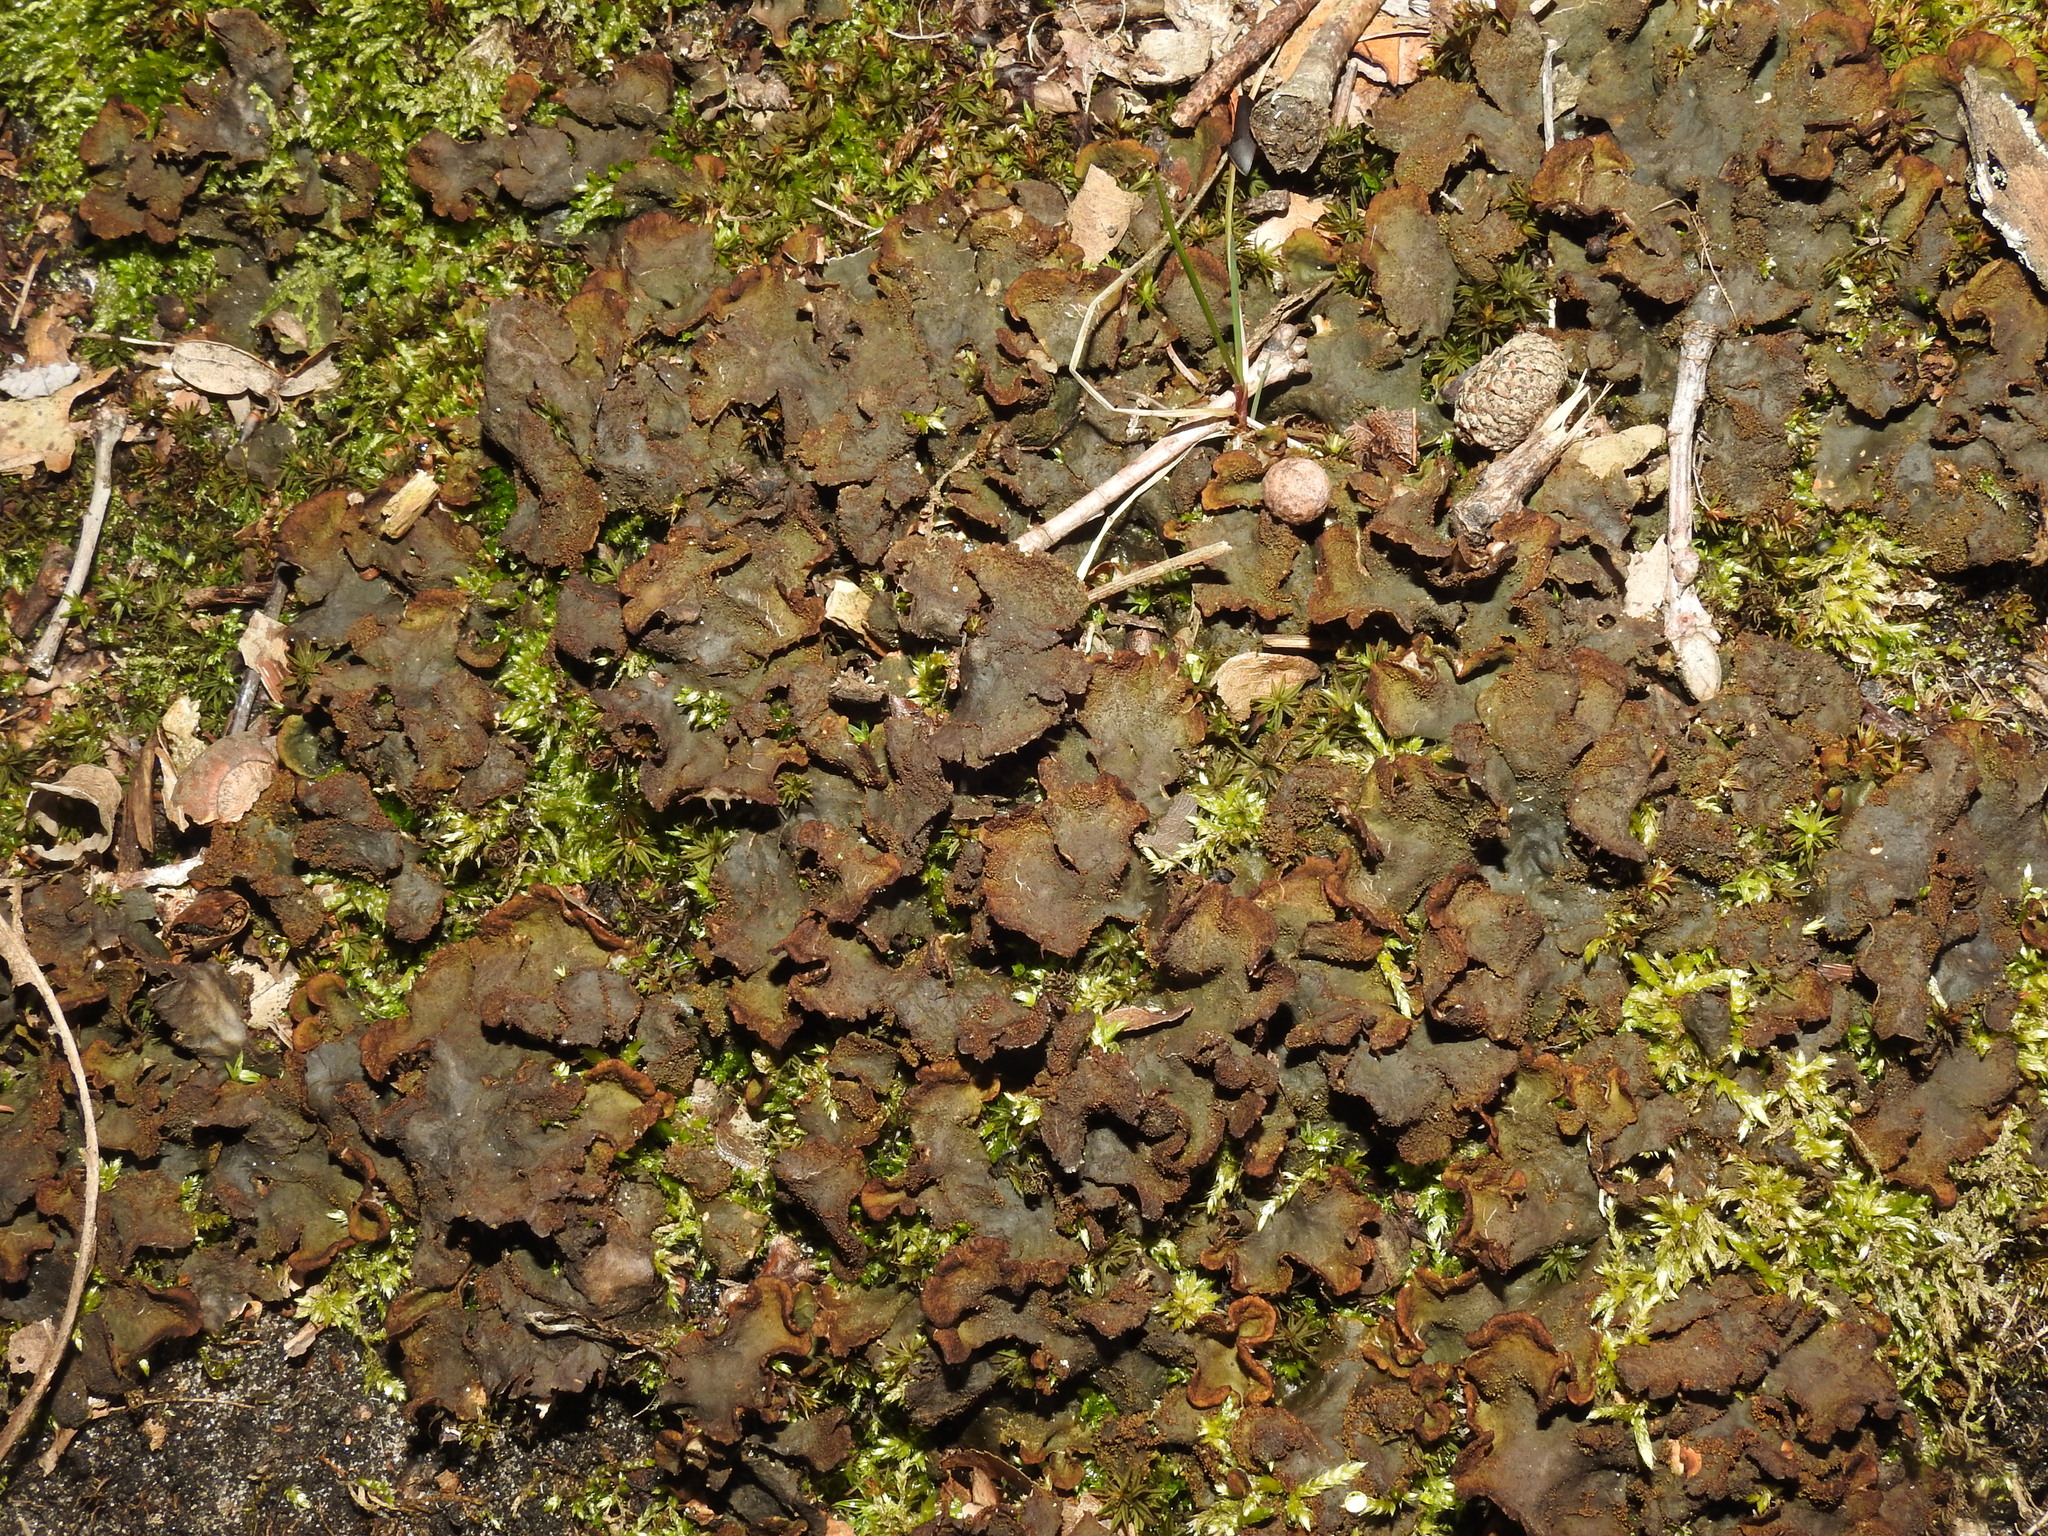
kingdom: Fungi
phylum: Ascomycota
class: Lecanoromycetes
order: Peltigerales
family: Peltigeraceae
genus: Peltigera
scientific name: Peltigera canina
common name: Dog pelt lichen
